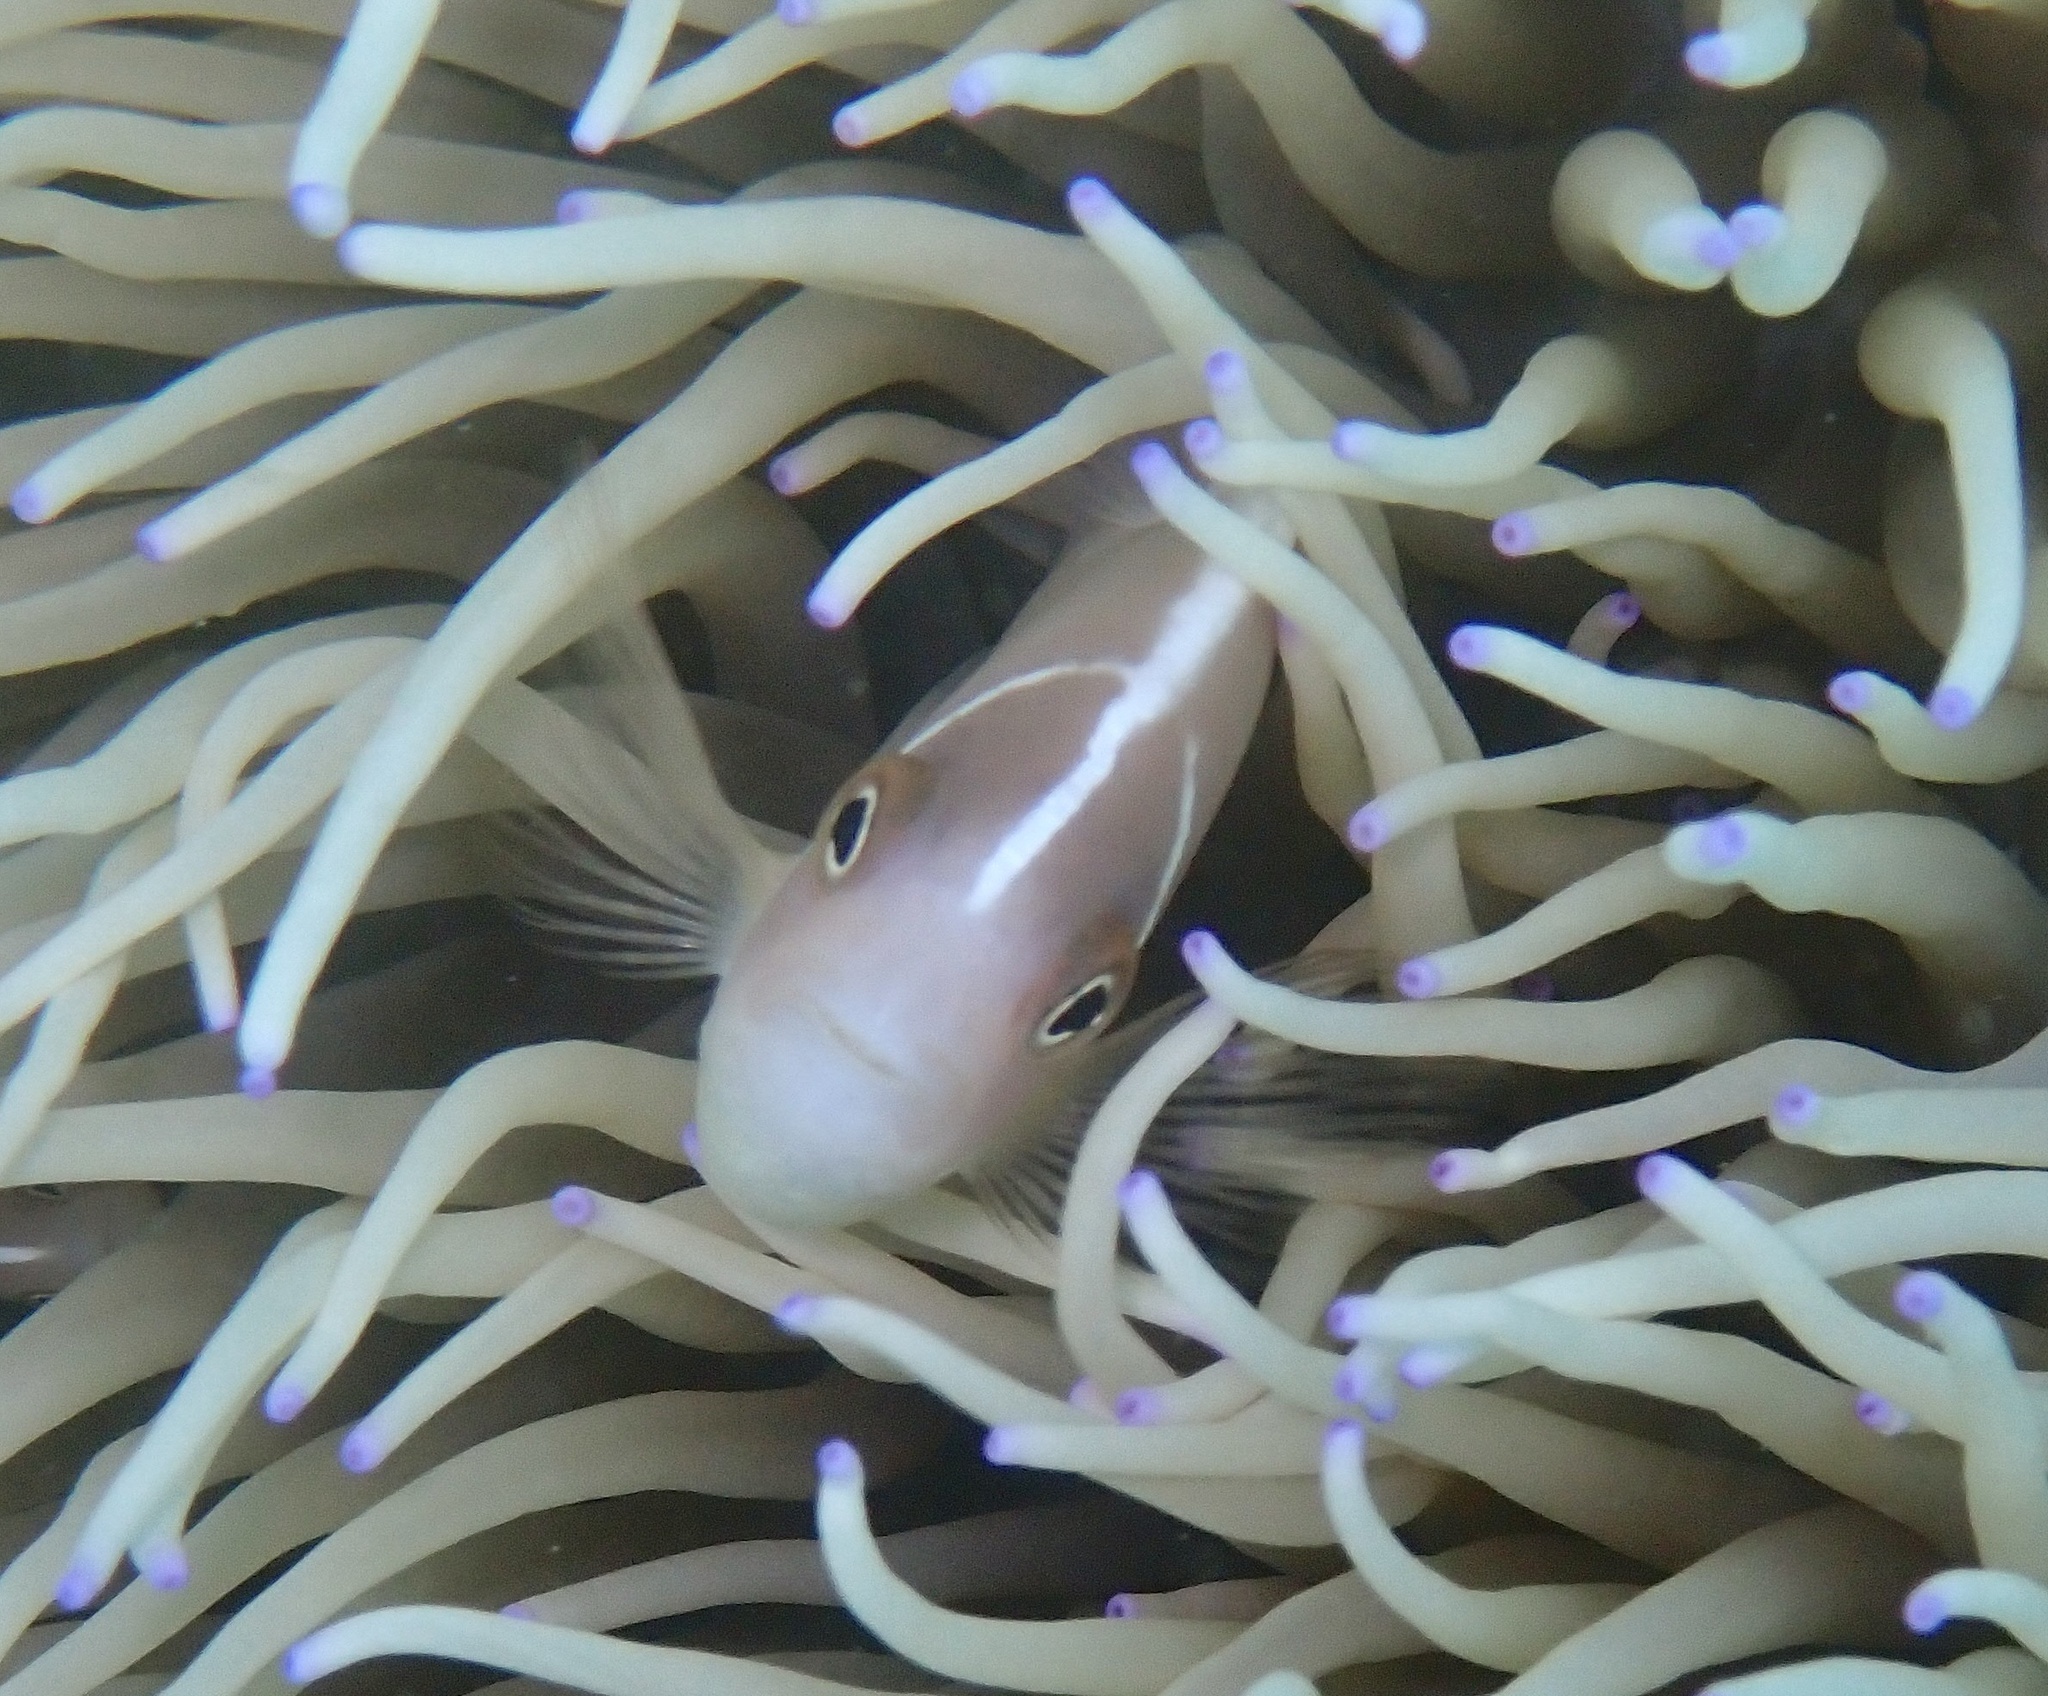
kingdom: Animalia
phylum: Chordata
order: Perciformes
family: Pomacentridae
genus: Amphiprion
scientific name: Amphiprion perideraion
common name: Pink anemonefish
